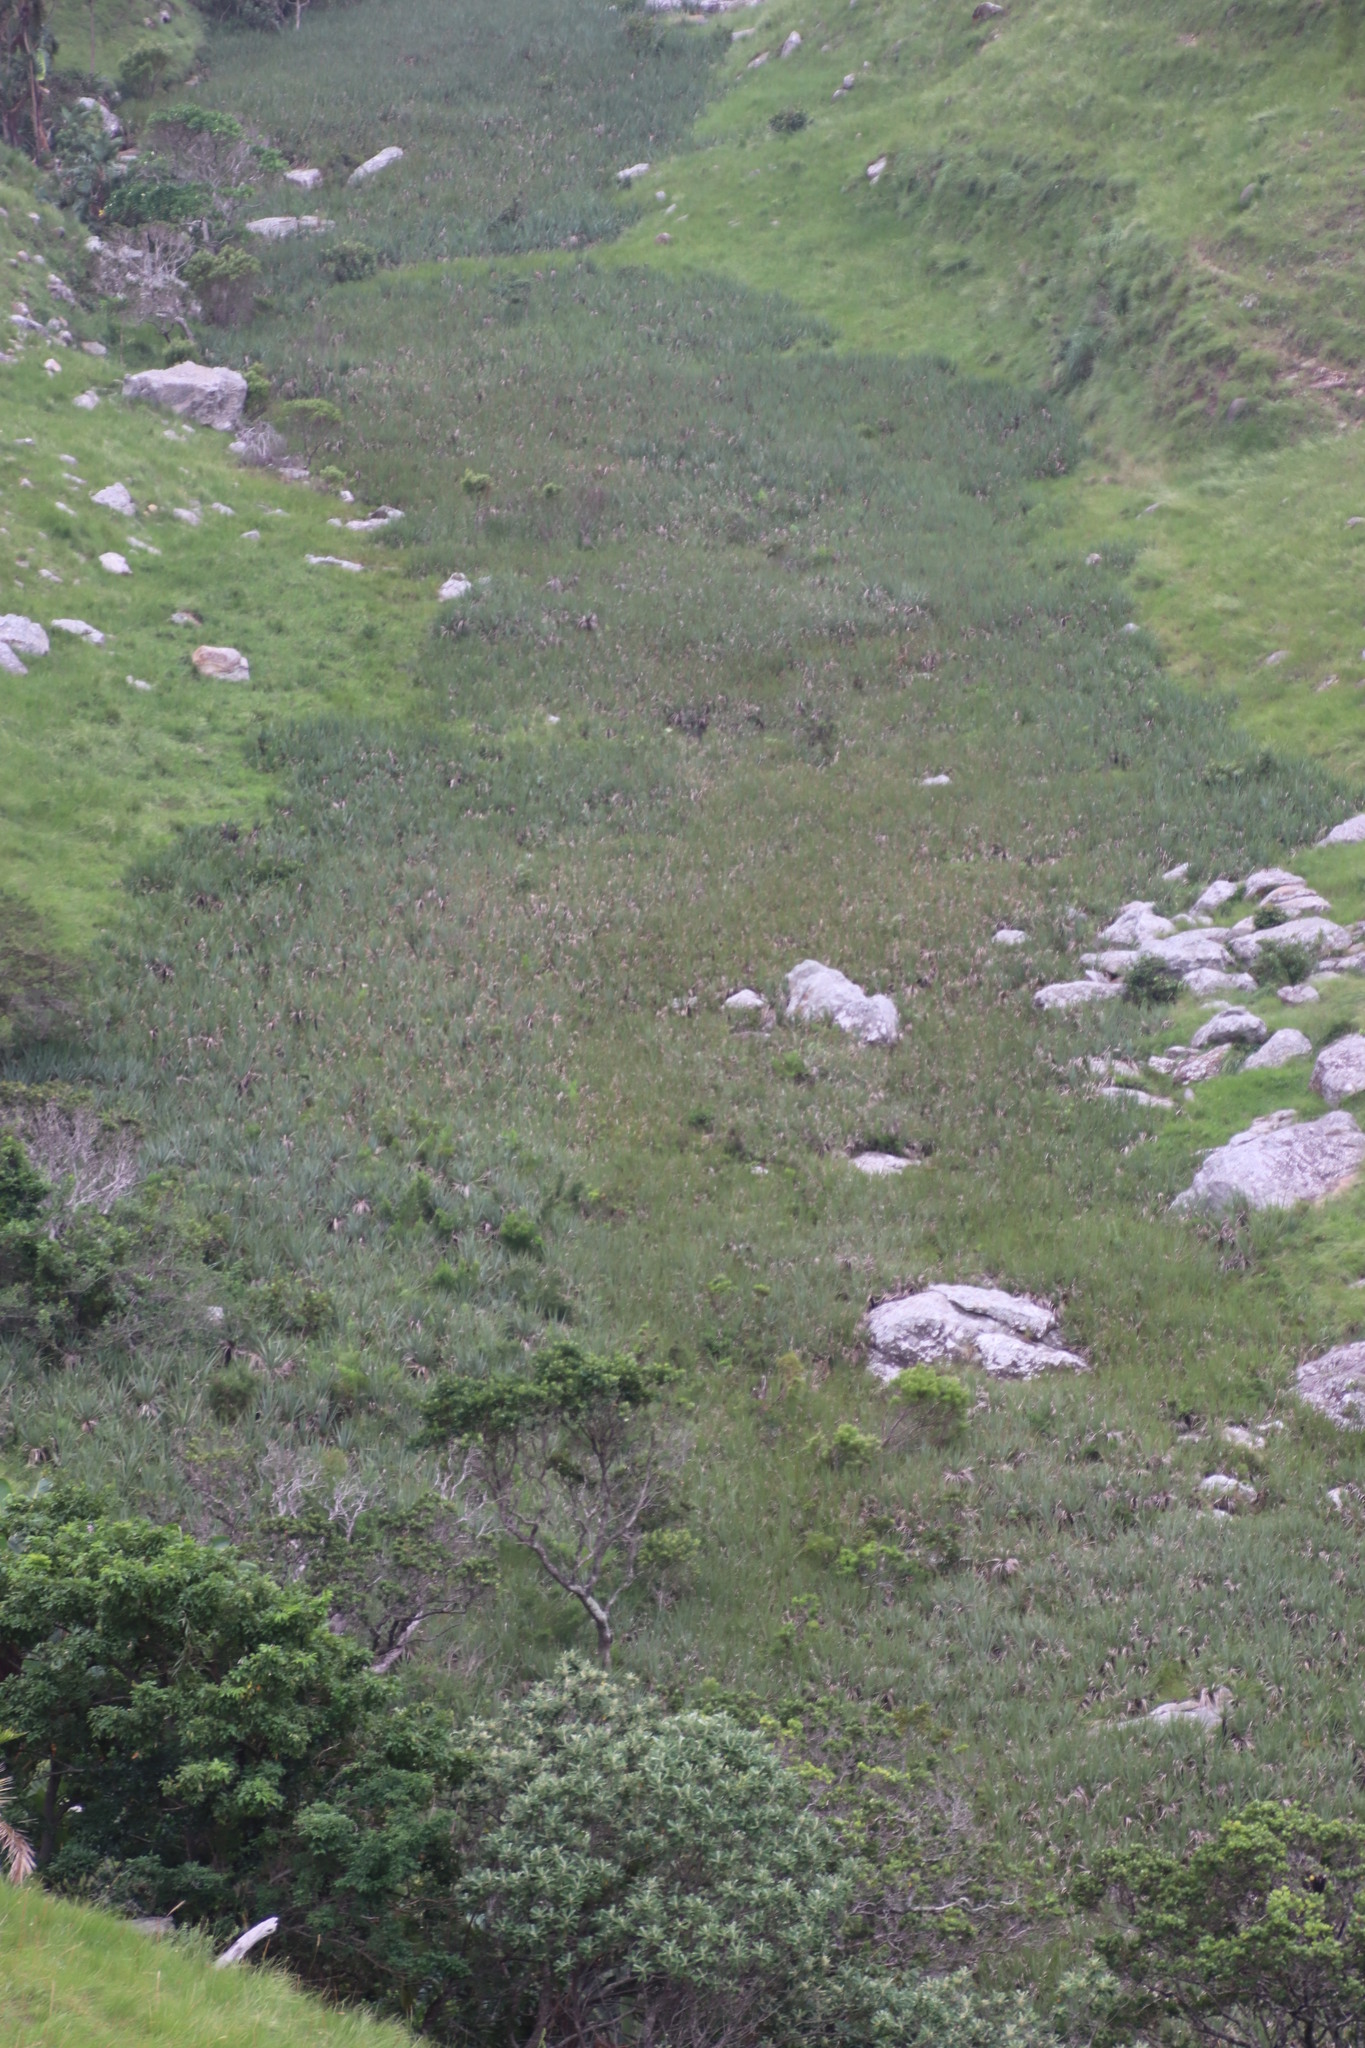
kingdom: Plantae
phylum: Tracheophyta
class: Liliopsida
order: Poales
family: Thurniaceae
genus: Prionium
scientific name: Prionium serratum
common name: Palmiet
